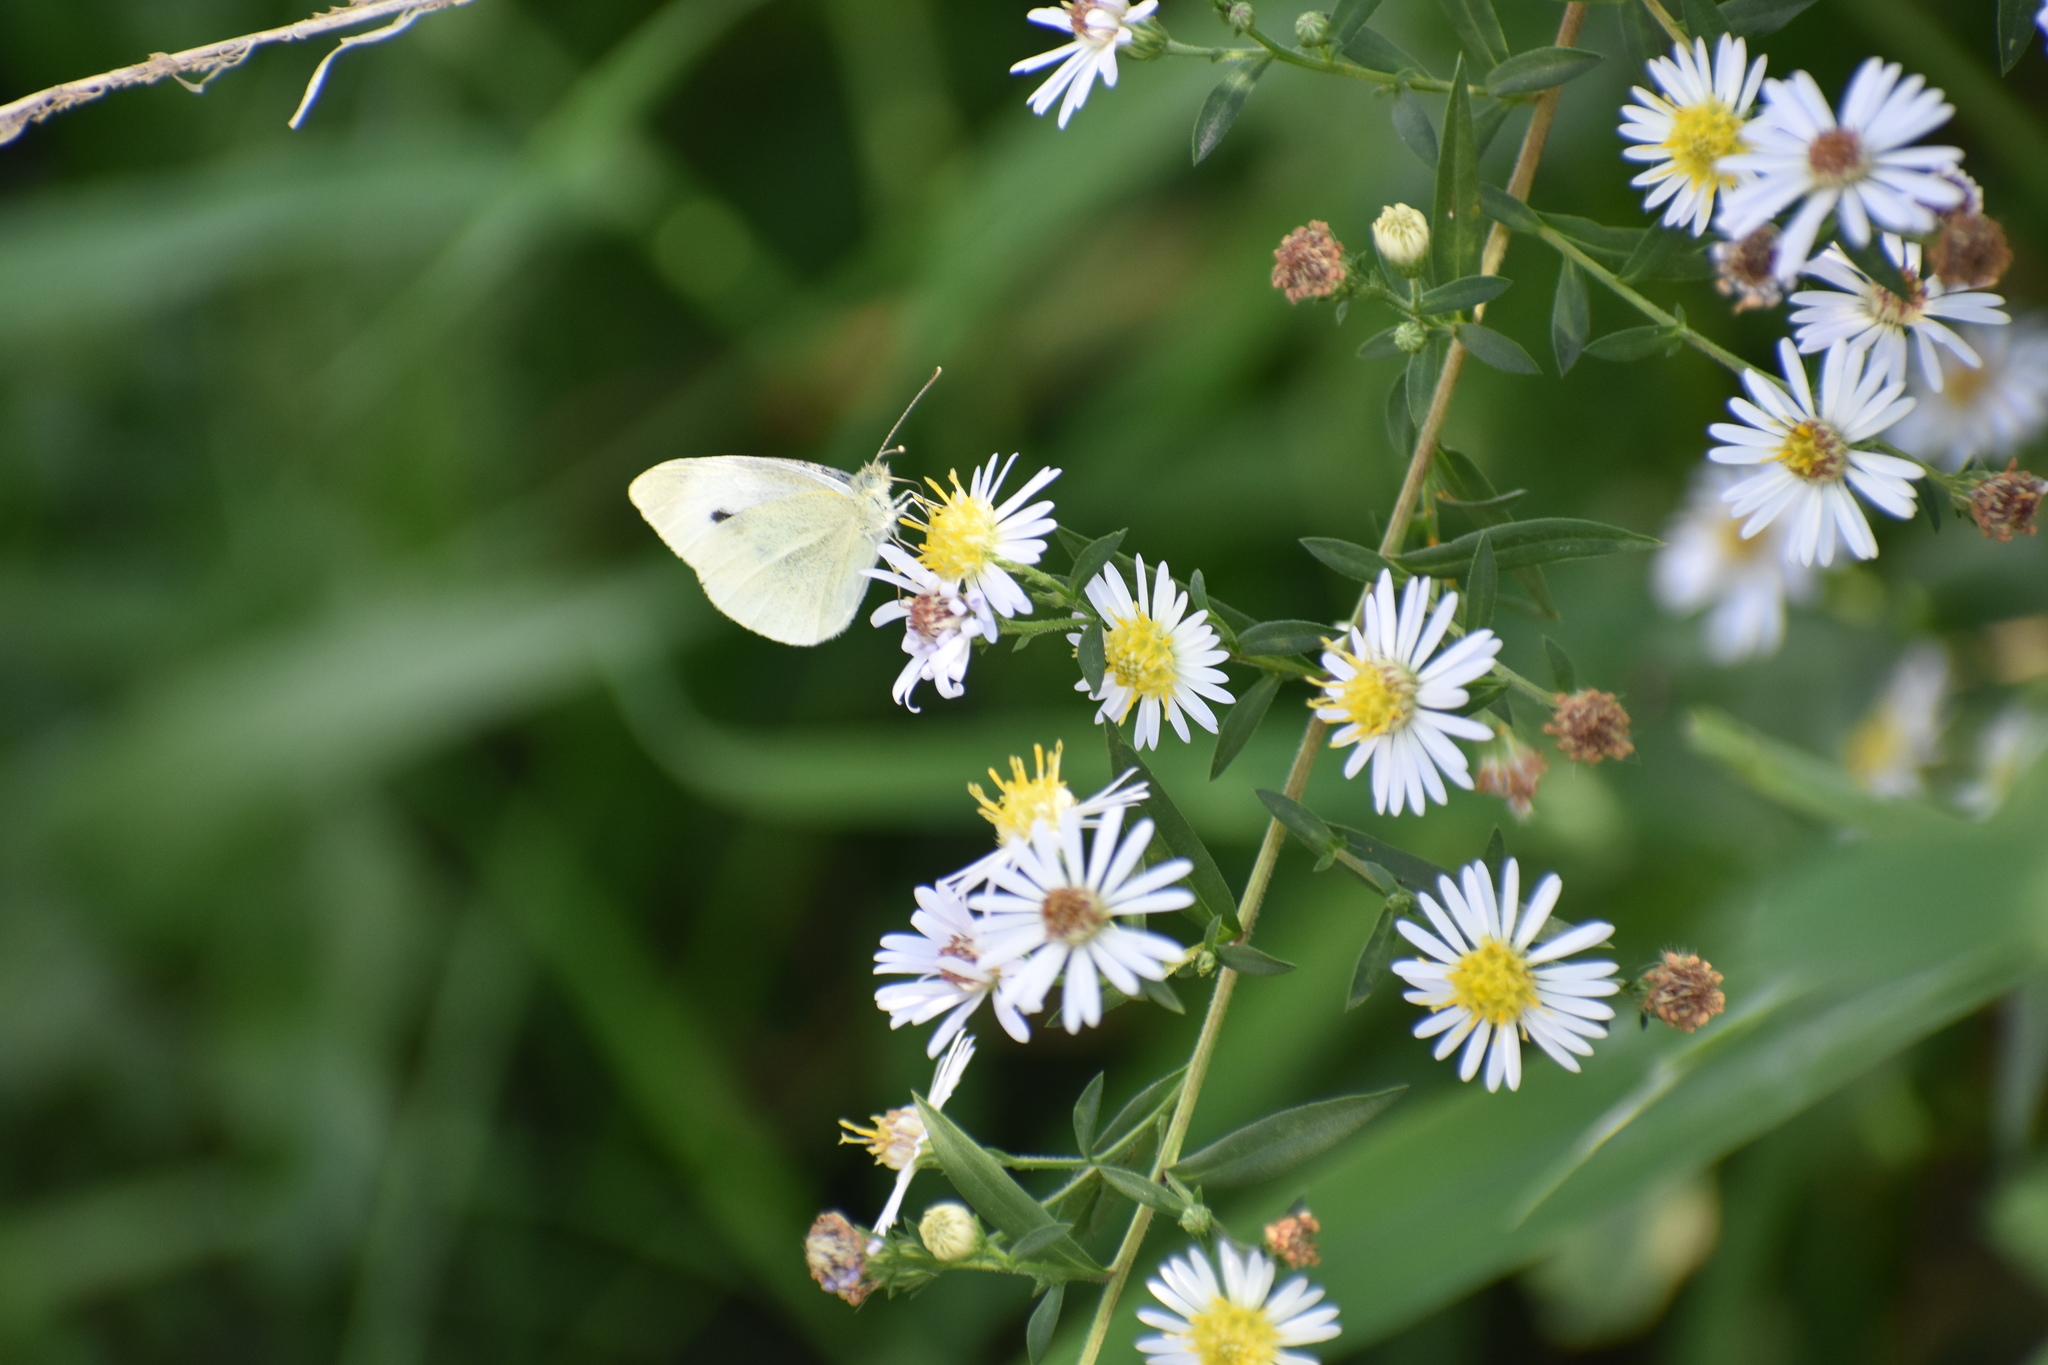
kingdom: Animalia
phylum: Arthropoda
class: Insecta
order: Lepidoptera
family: Pieridae
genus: Pieris
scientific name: Pieris rapae
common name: Small white
